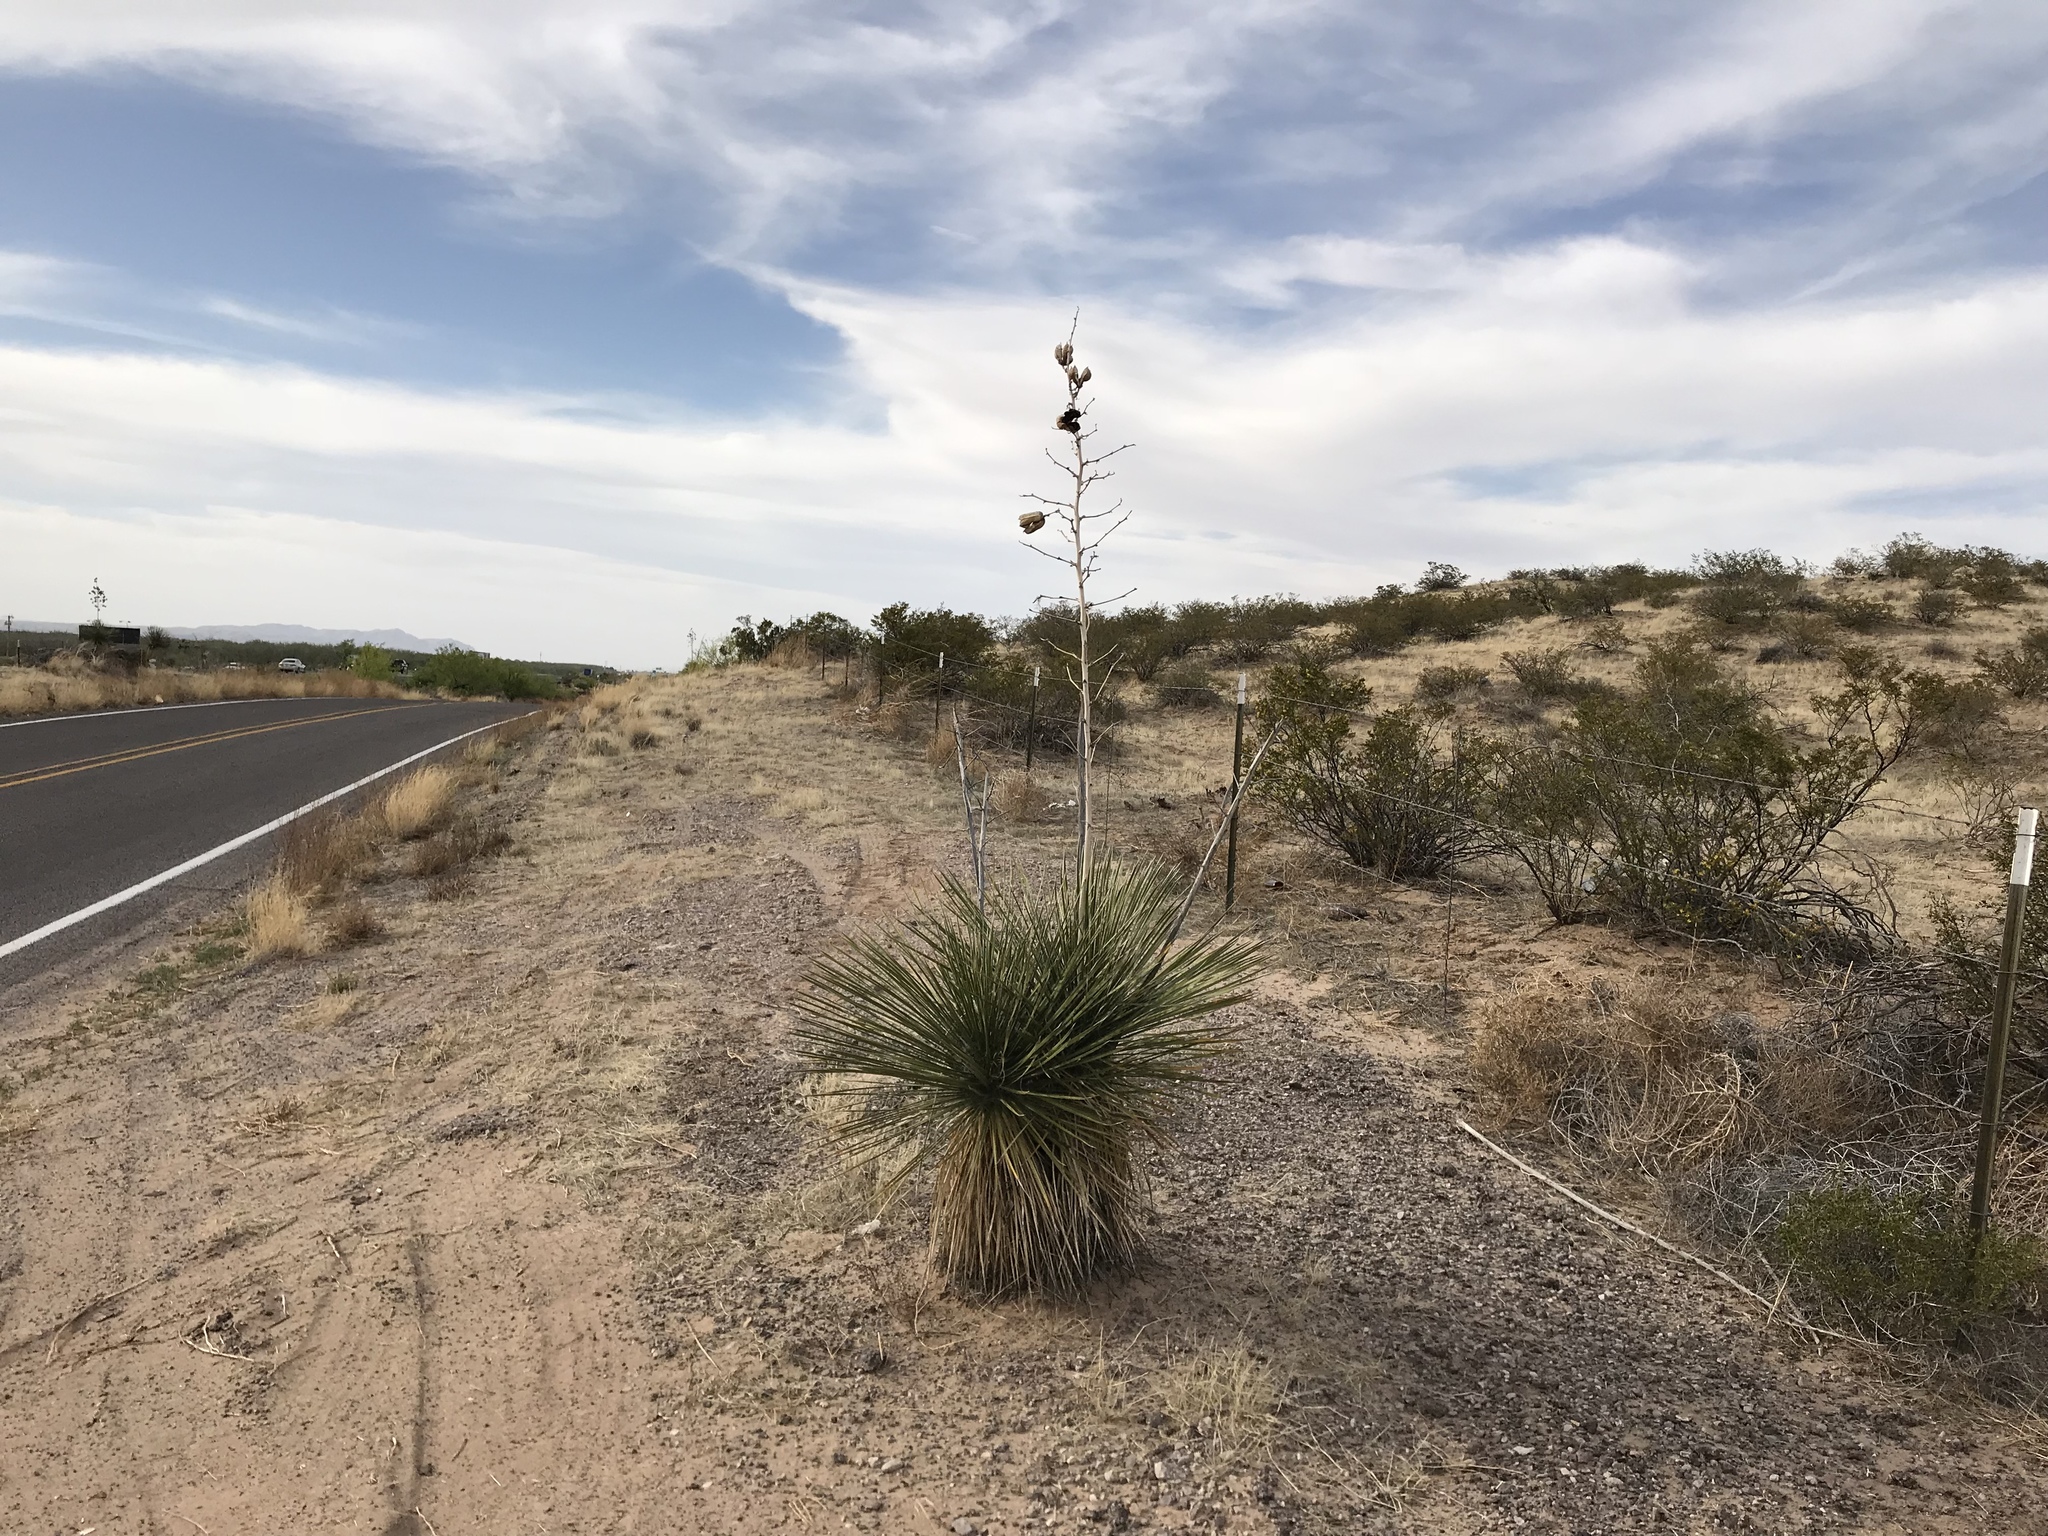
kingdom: Plantae
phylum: Tracheophyta
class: Liliopsida
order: Asparagales
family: Asparagaceae
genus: Yucca
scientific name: Yucca elata
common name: Palmella
